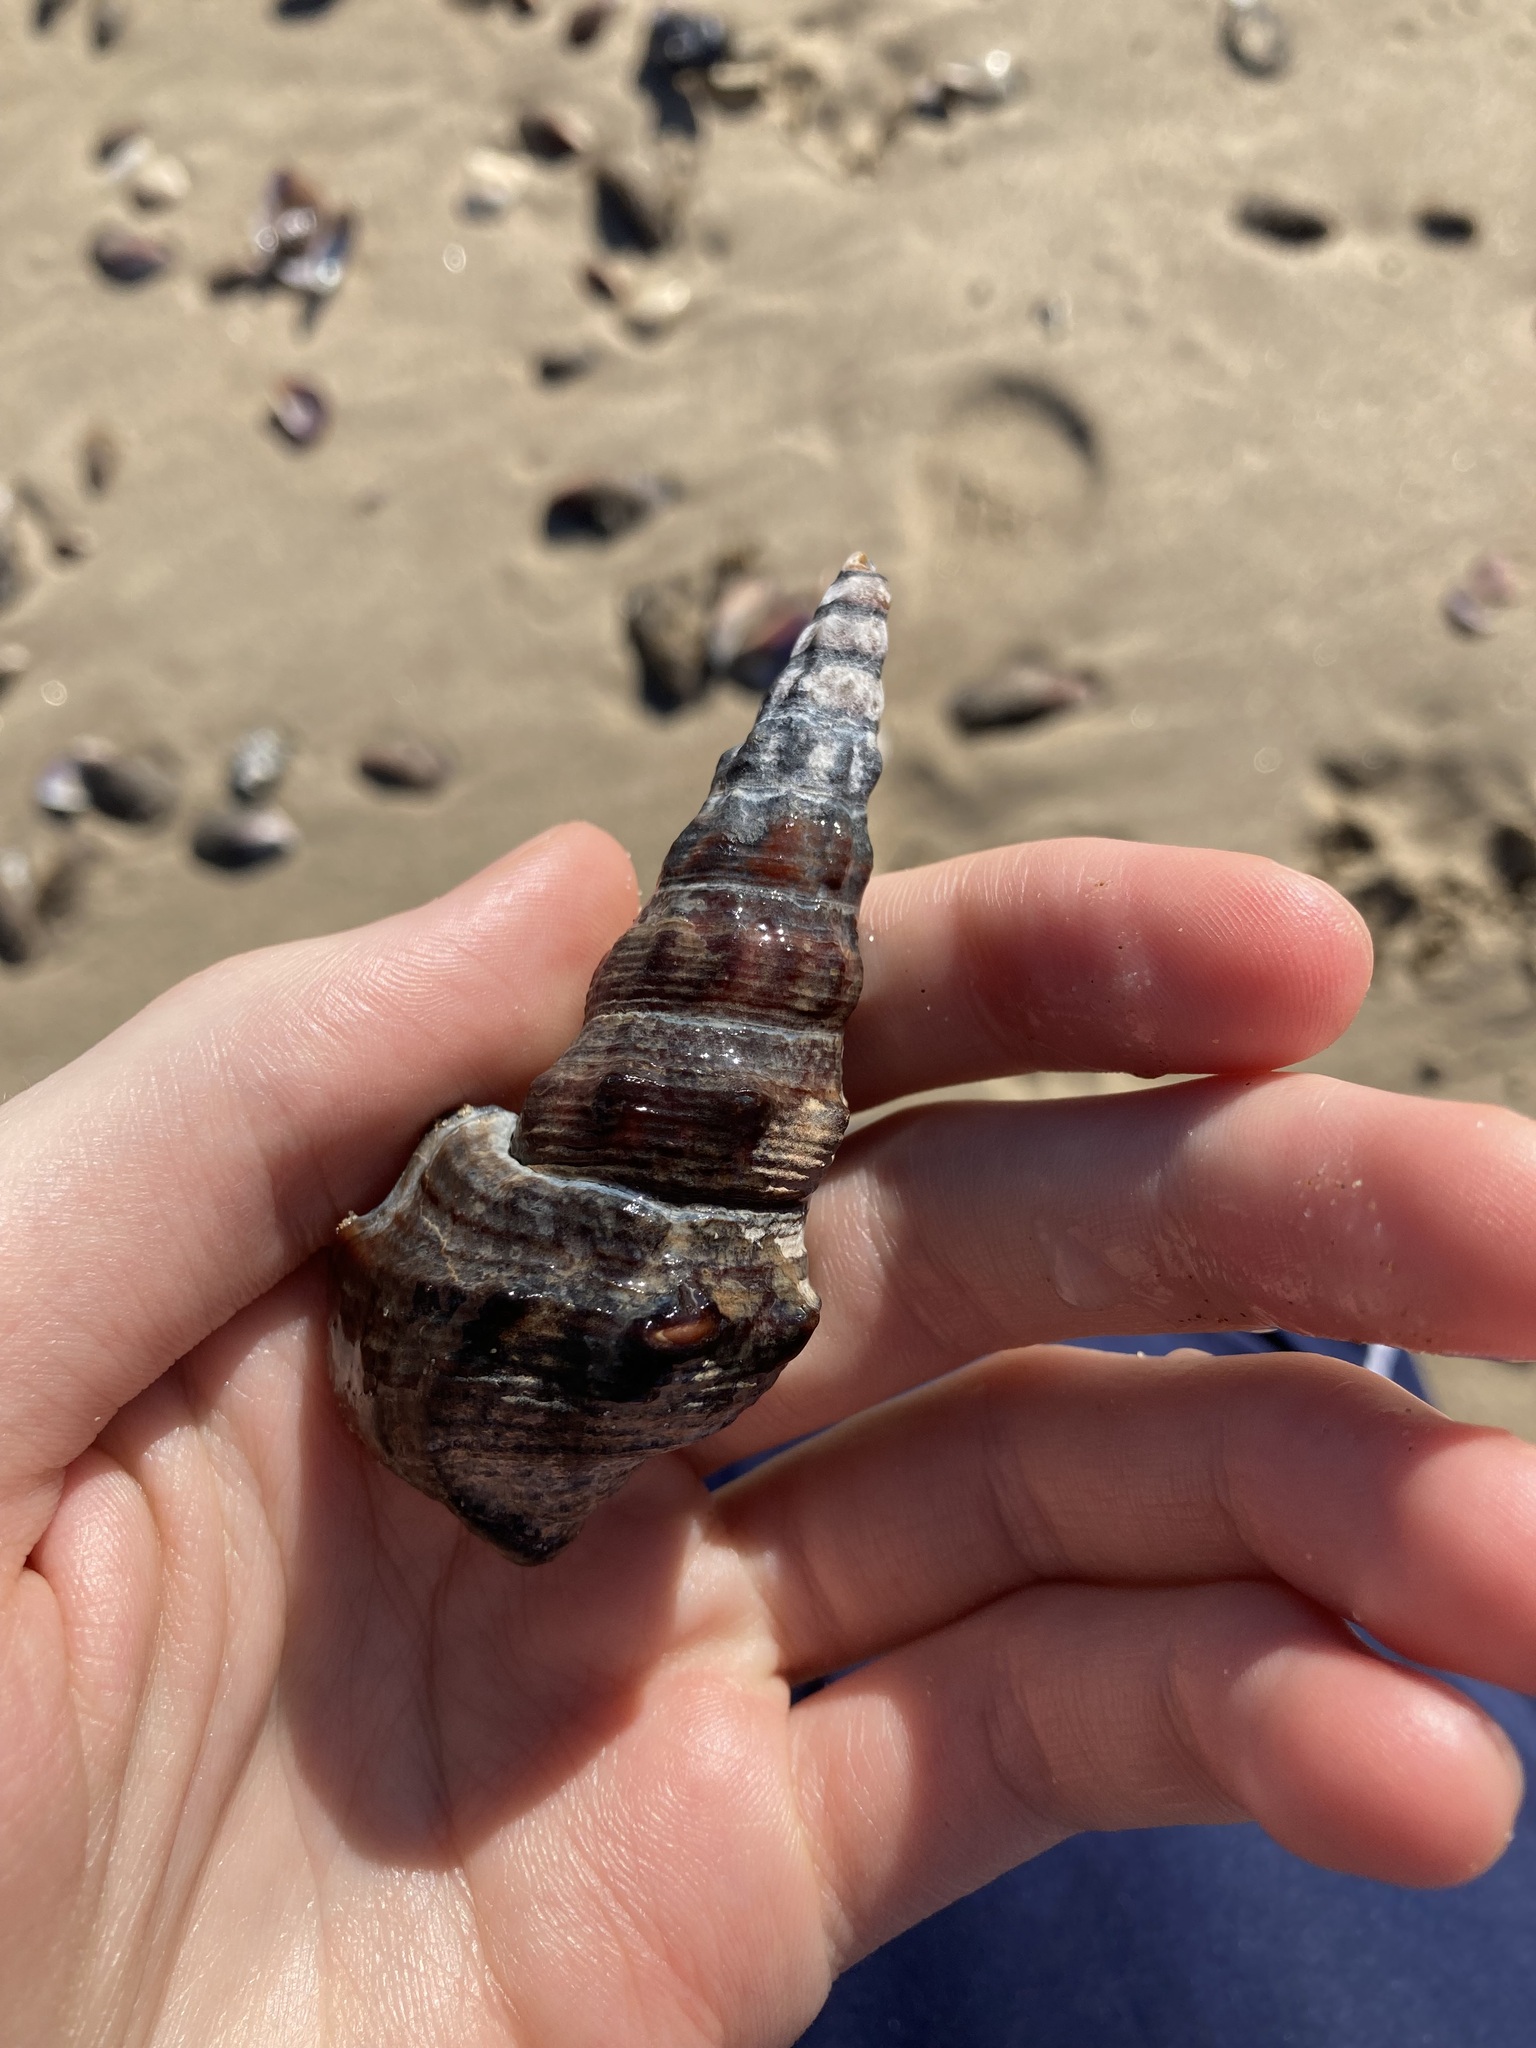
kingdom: Animalia
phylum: Mollusca
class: Gastropoda
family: Batillariidae
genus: Pyrazus
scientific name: Pyrazus ebeninus
